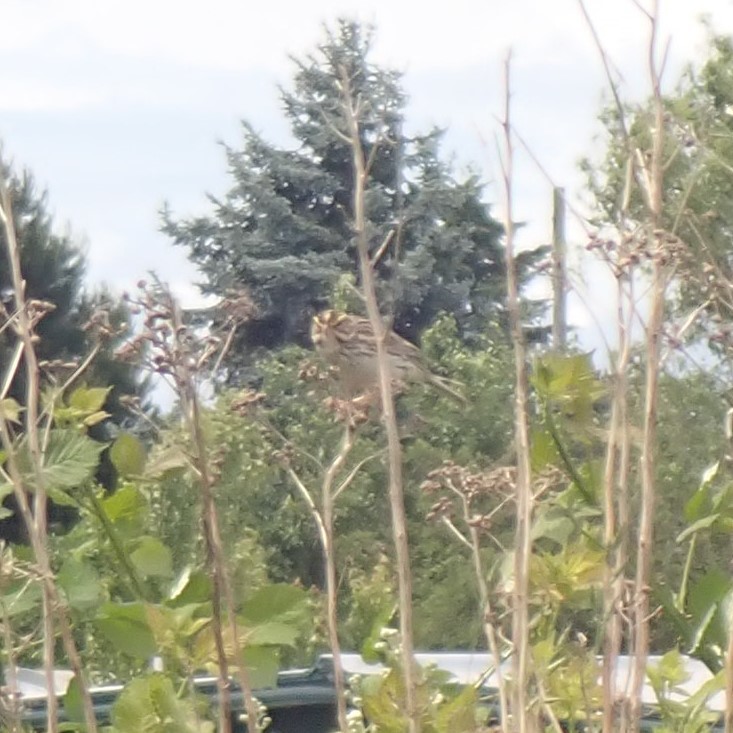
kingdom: Animalia
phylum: Chordata
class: Aves
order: Passeriformes
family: Passerellidae
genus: Passerculus
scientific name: Passerculus sandwichensis
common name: Savannah sparrow
